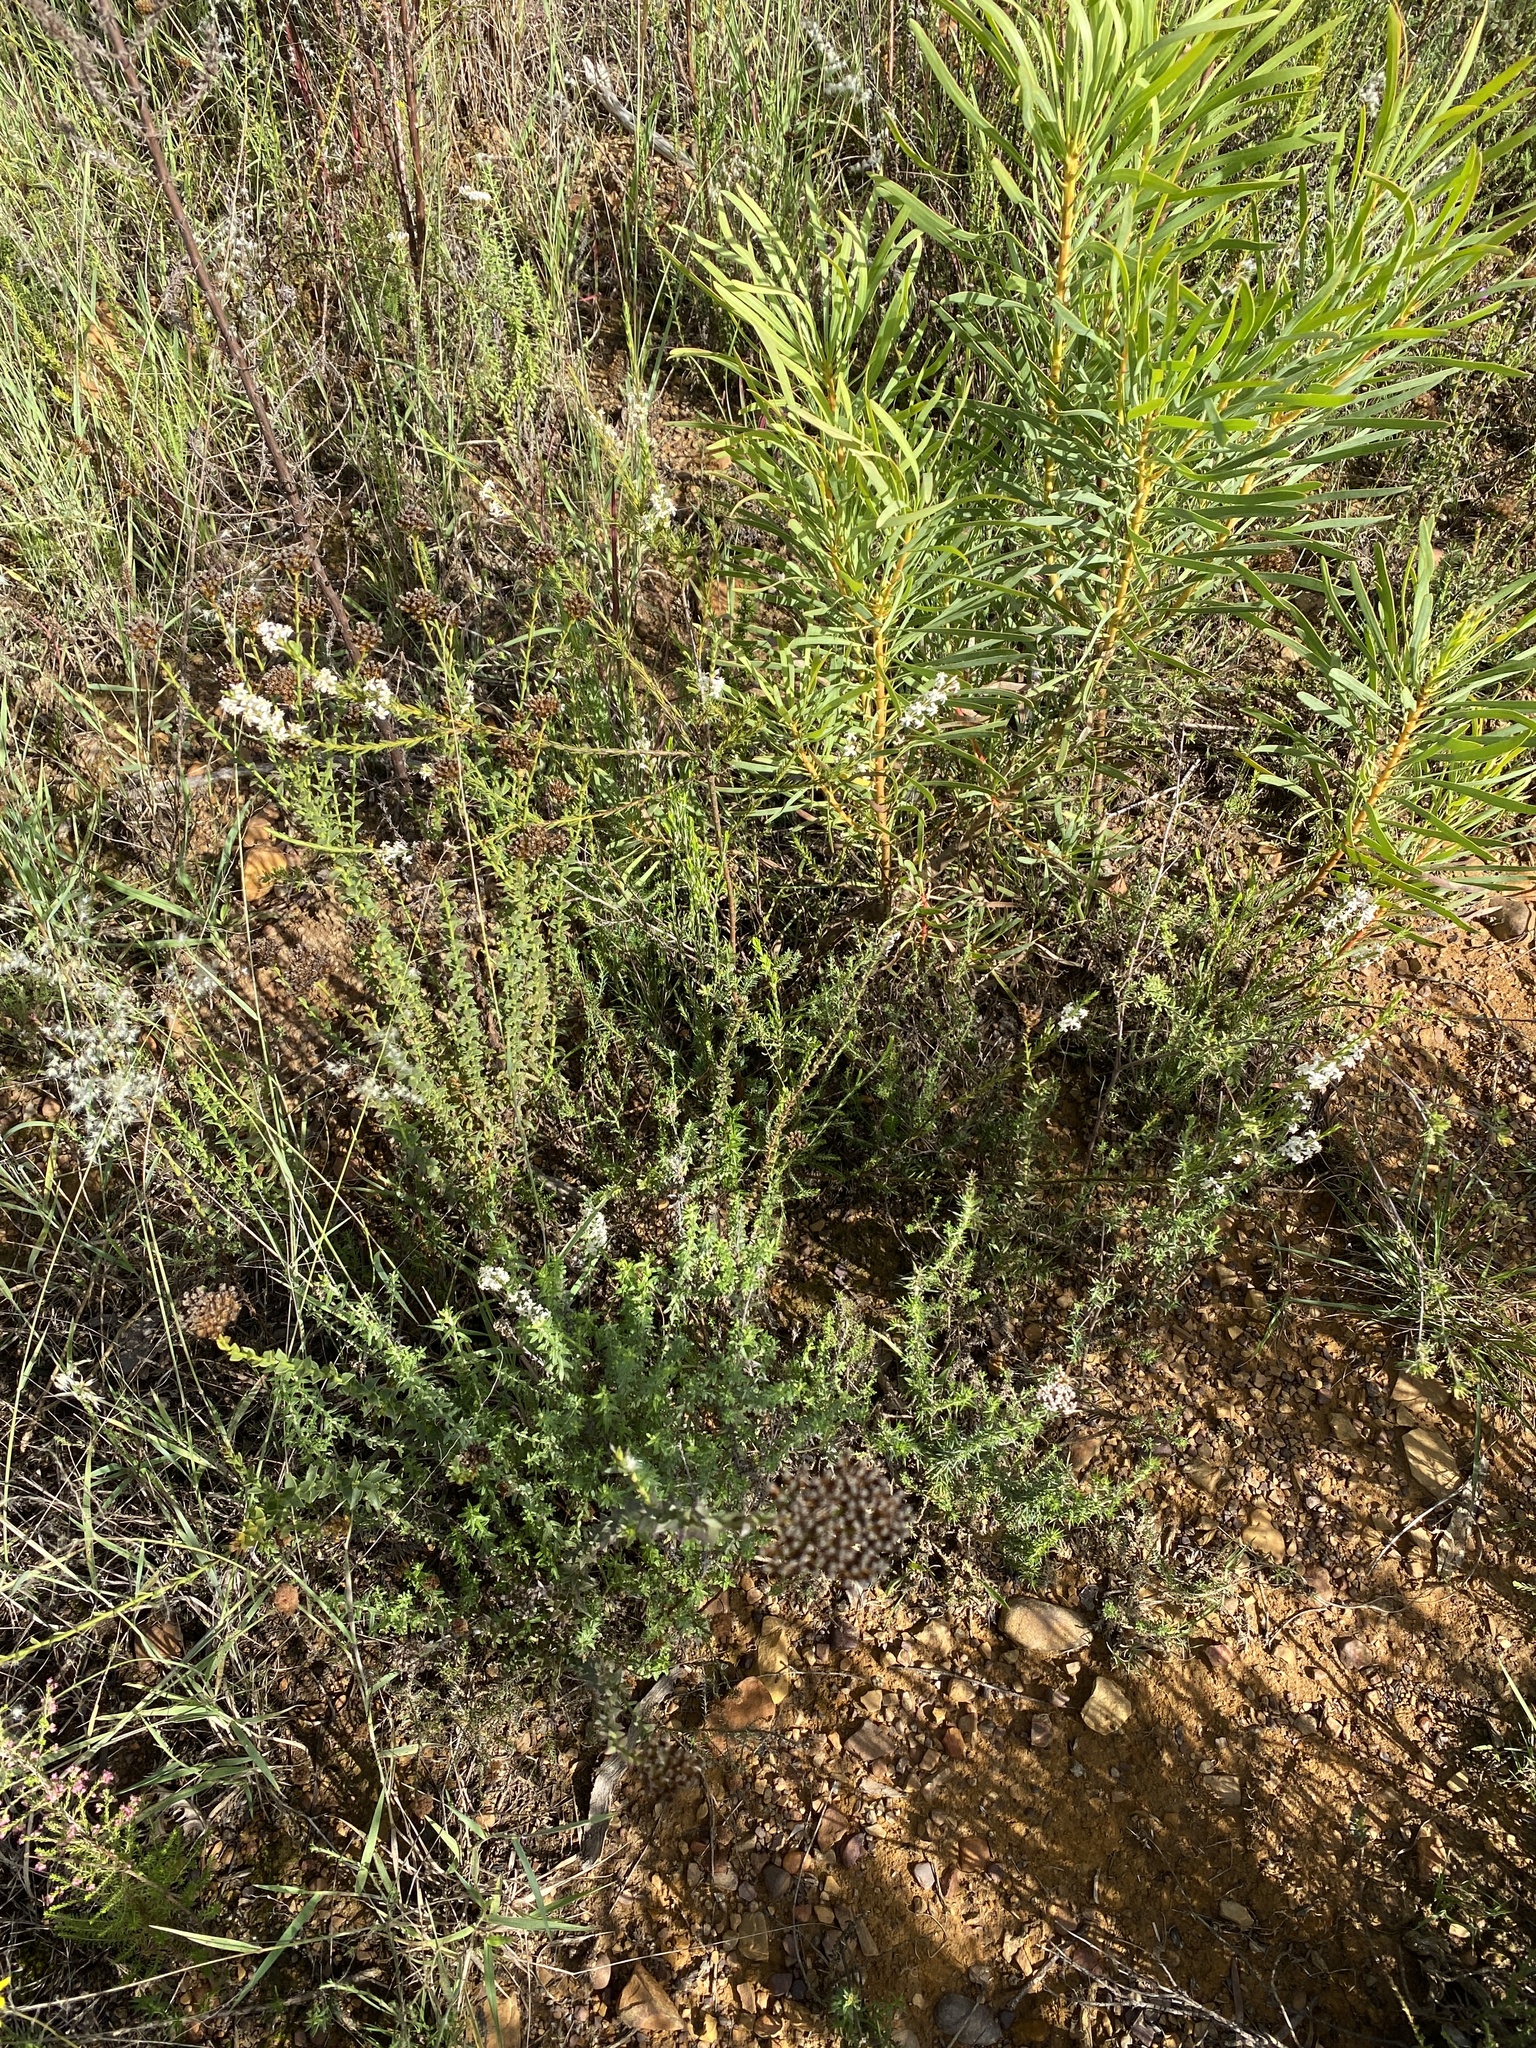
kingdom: Plantae
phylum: Tracheophyta
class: Magnoliopsida
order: Malvales
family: Thymelaeaceae
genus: Struthiola
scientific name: Struthiola dodecandra
